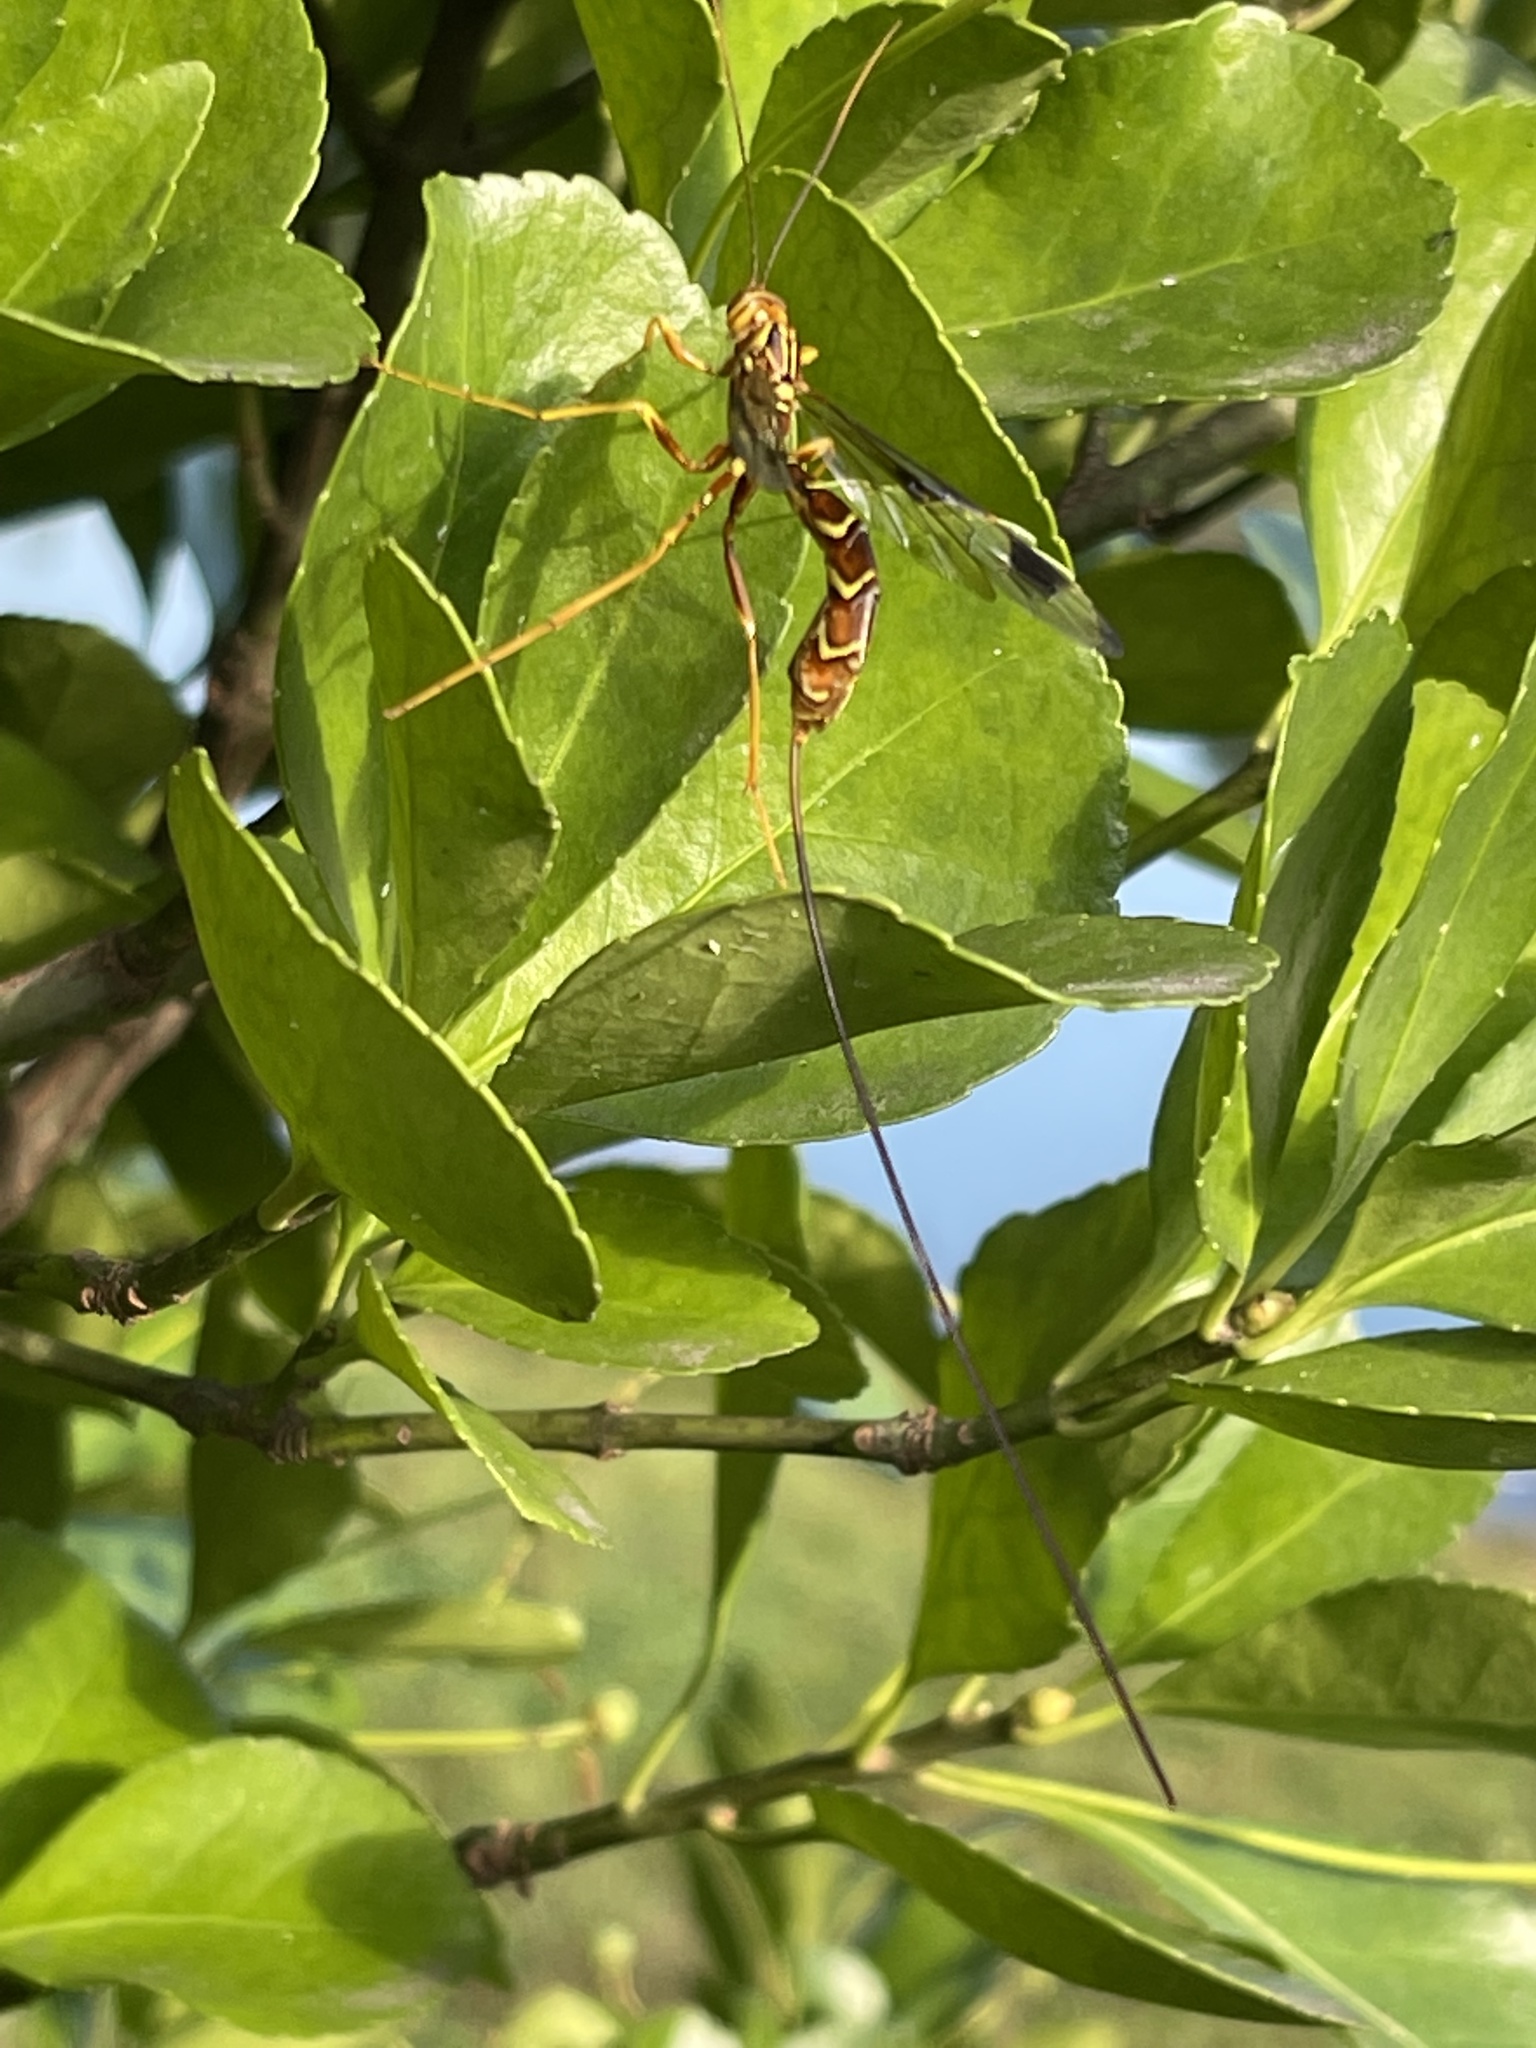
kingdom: Animalia
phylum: Arthropoda
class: Insecta
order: Hymenoptera
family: Ichneumonidae
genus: Megarhyssa
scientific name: Megarhyssa macrura
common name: Long-tailed giant ichneumonid wasp
